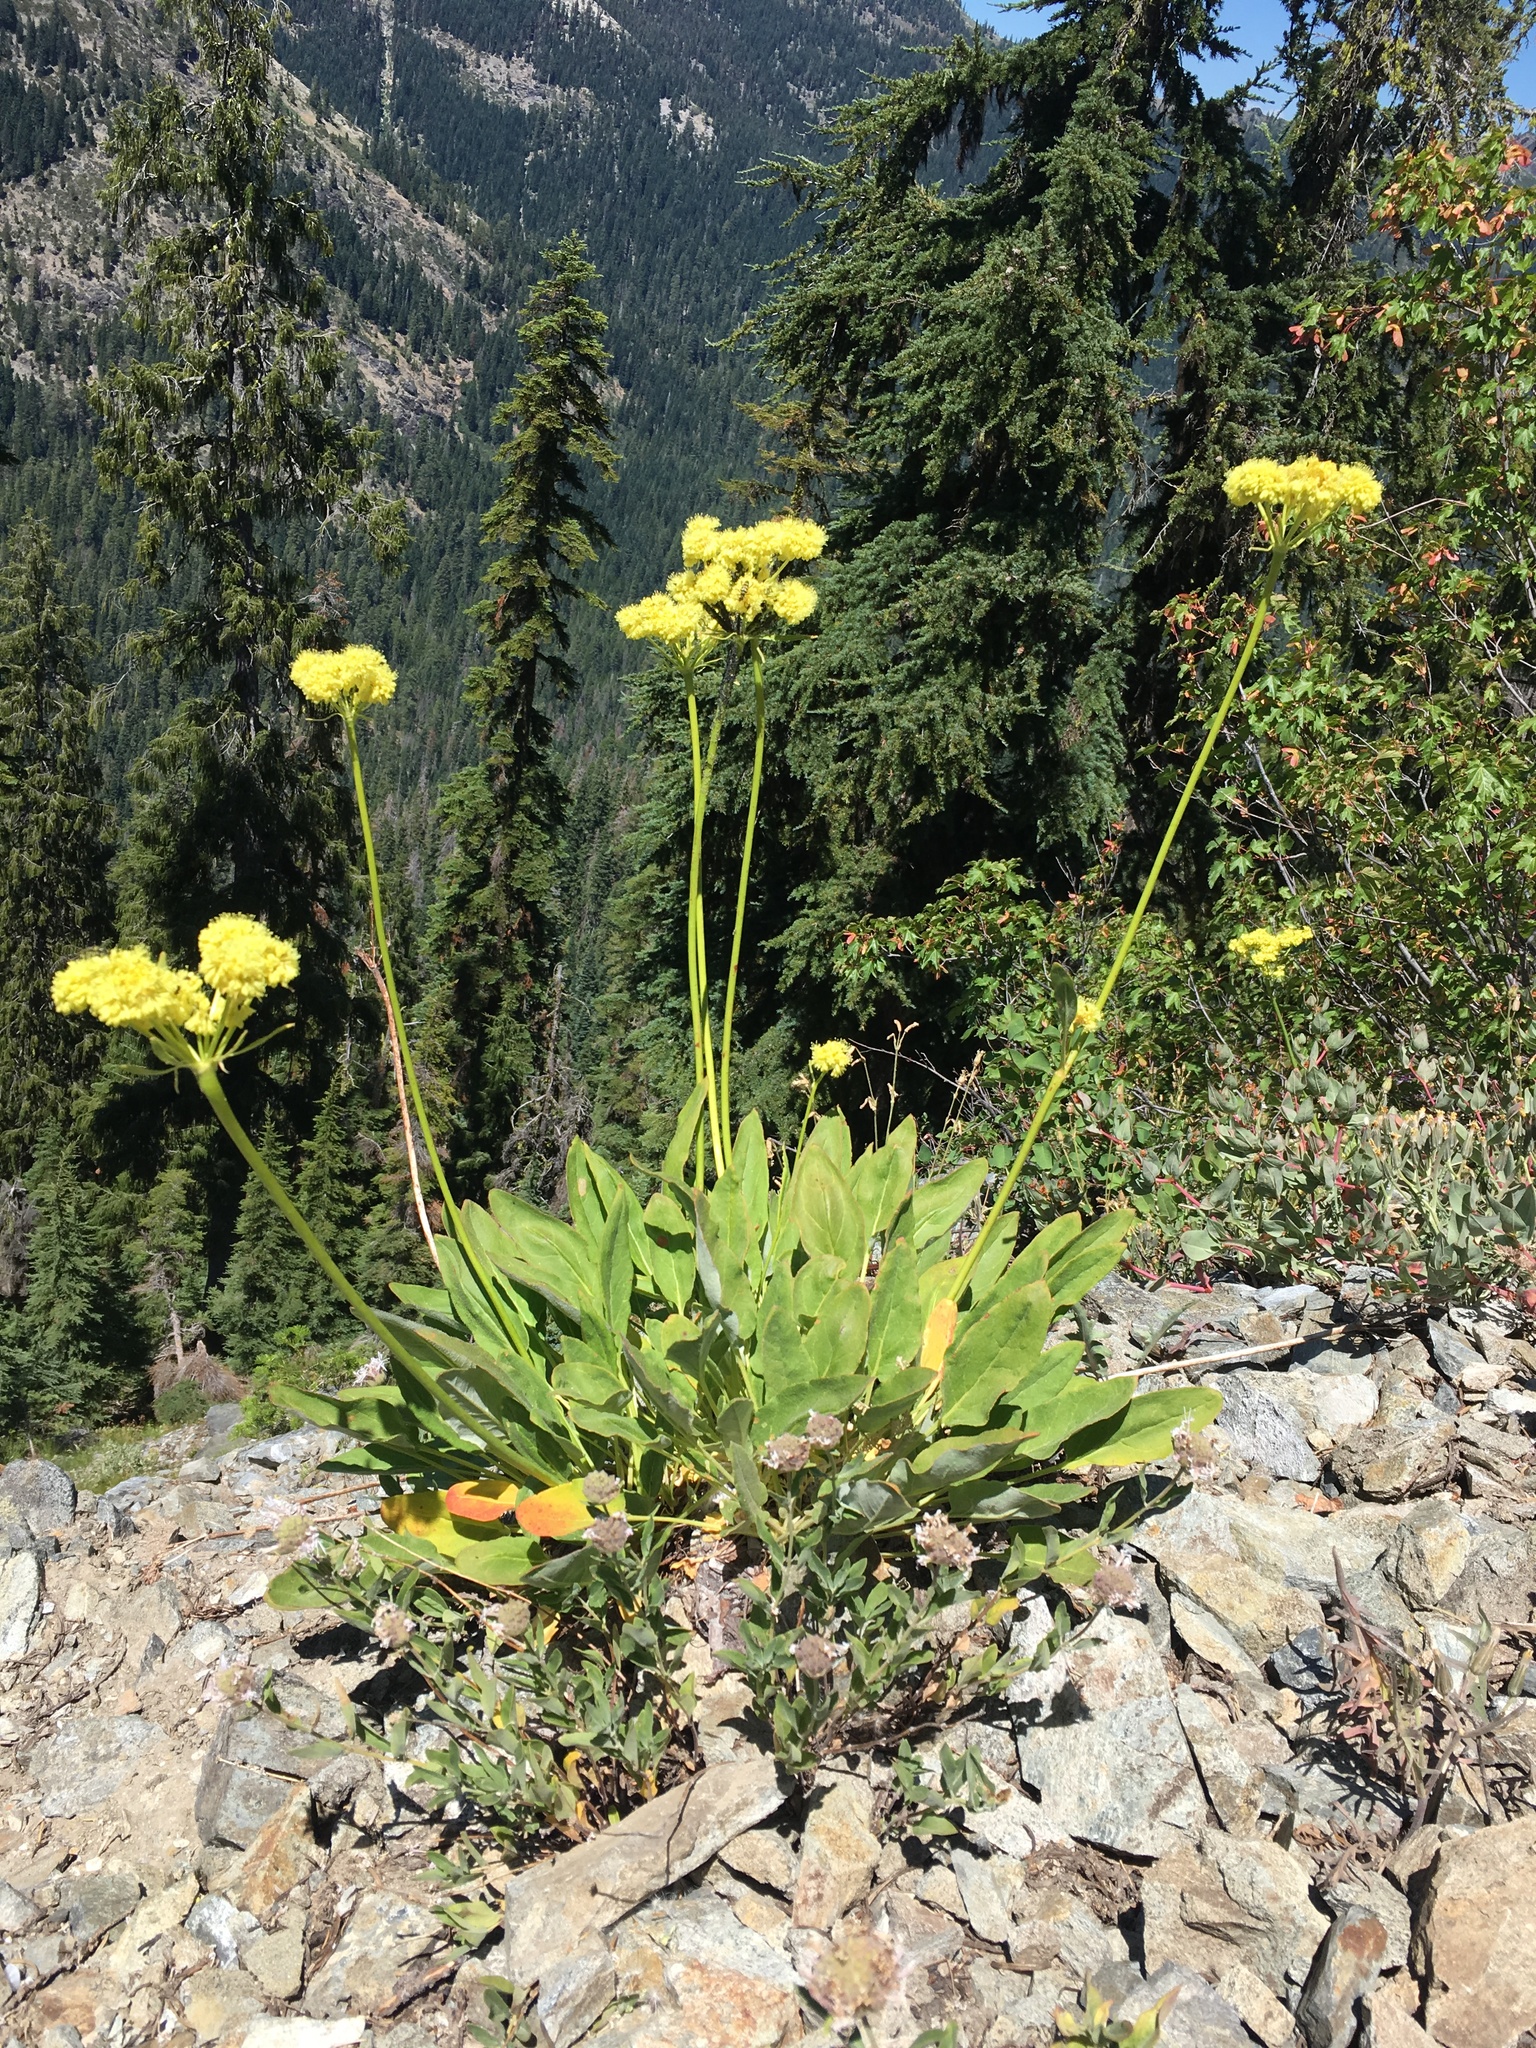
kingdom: Plantae
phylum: Tracheophyta
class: Magnoliopsida
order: Caryophyllales
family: Polygonaceae
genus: Eriogonum
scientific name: Eriogonum compositum
